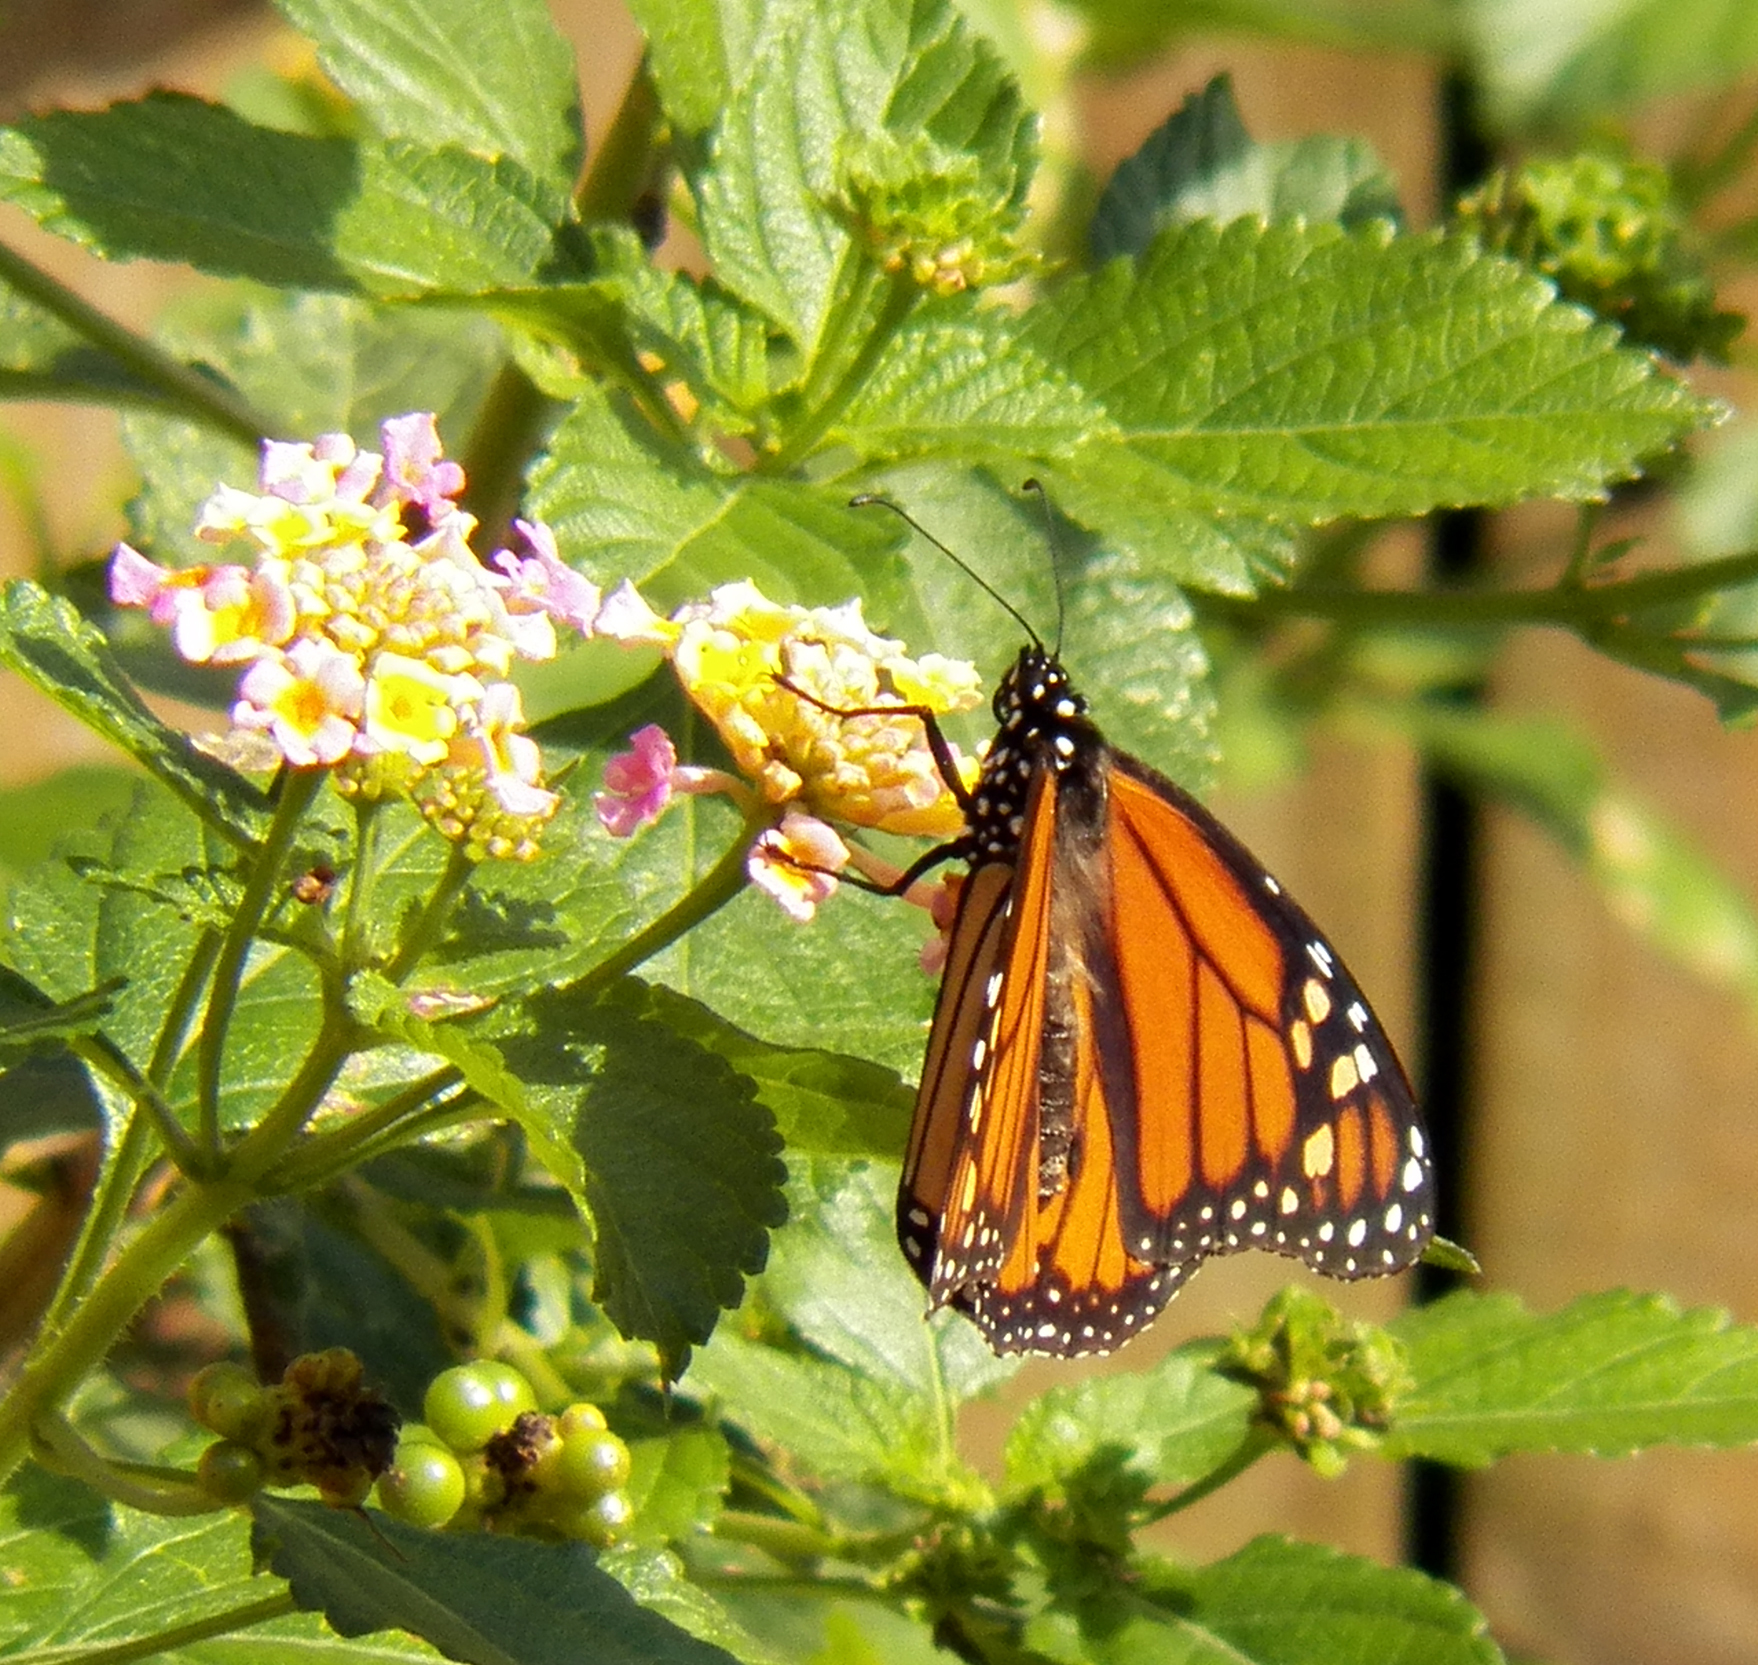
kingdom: Animalia
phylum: Arthropoda
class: Insecta
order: Lepidoptera
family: Nymphalidae
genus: Danaus
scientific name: Danaus plexippus
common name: Monarch
